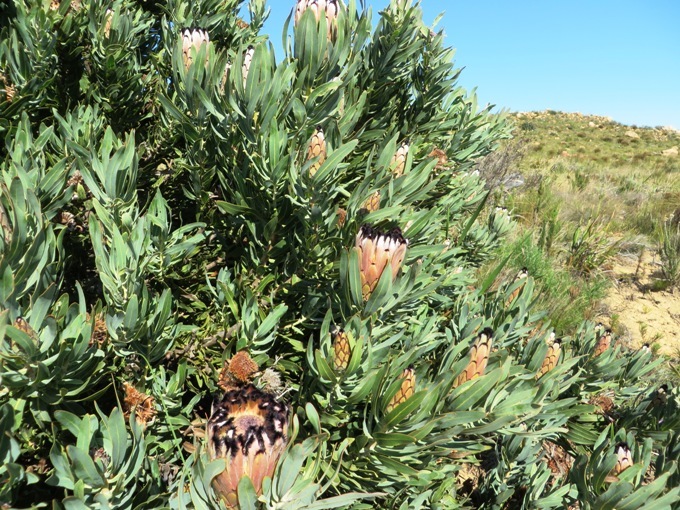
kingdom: Plantae
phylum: Tracheophyta
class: Magnoliopsida
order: Proteales
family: Proteaceae
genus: Protea
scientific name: Protea neriifolia
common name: Blue sugarbush
